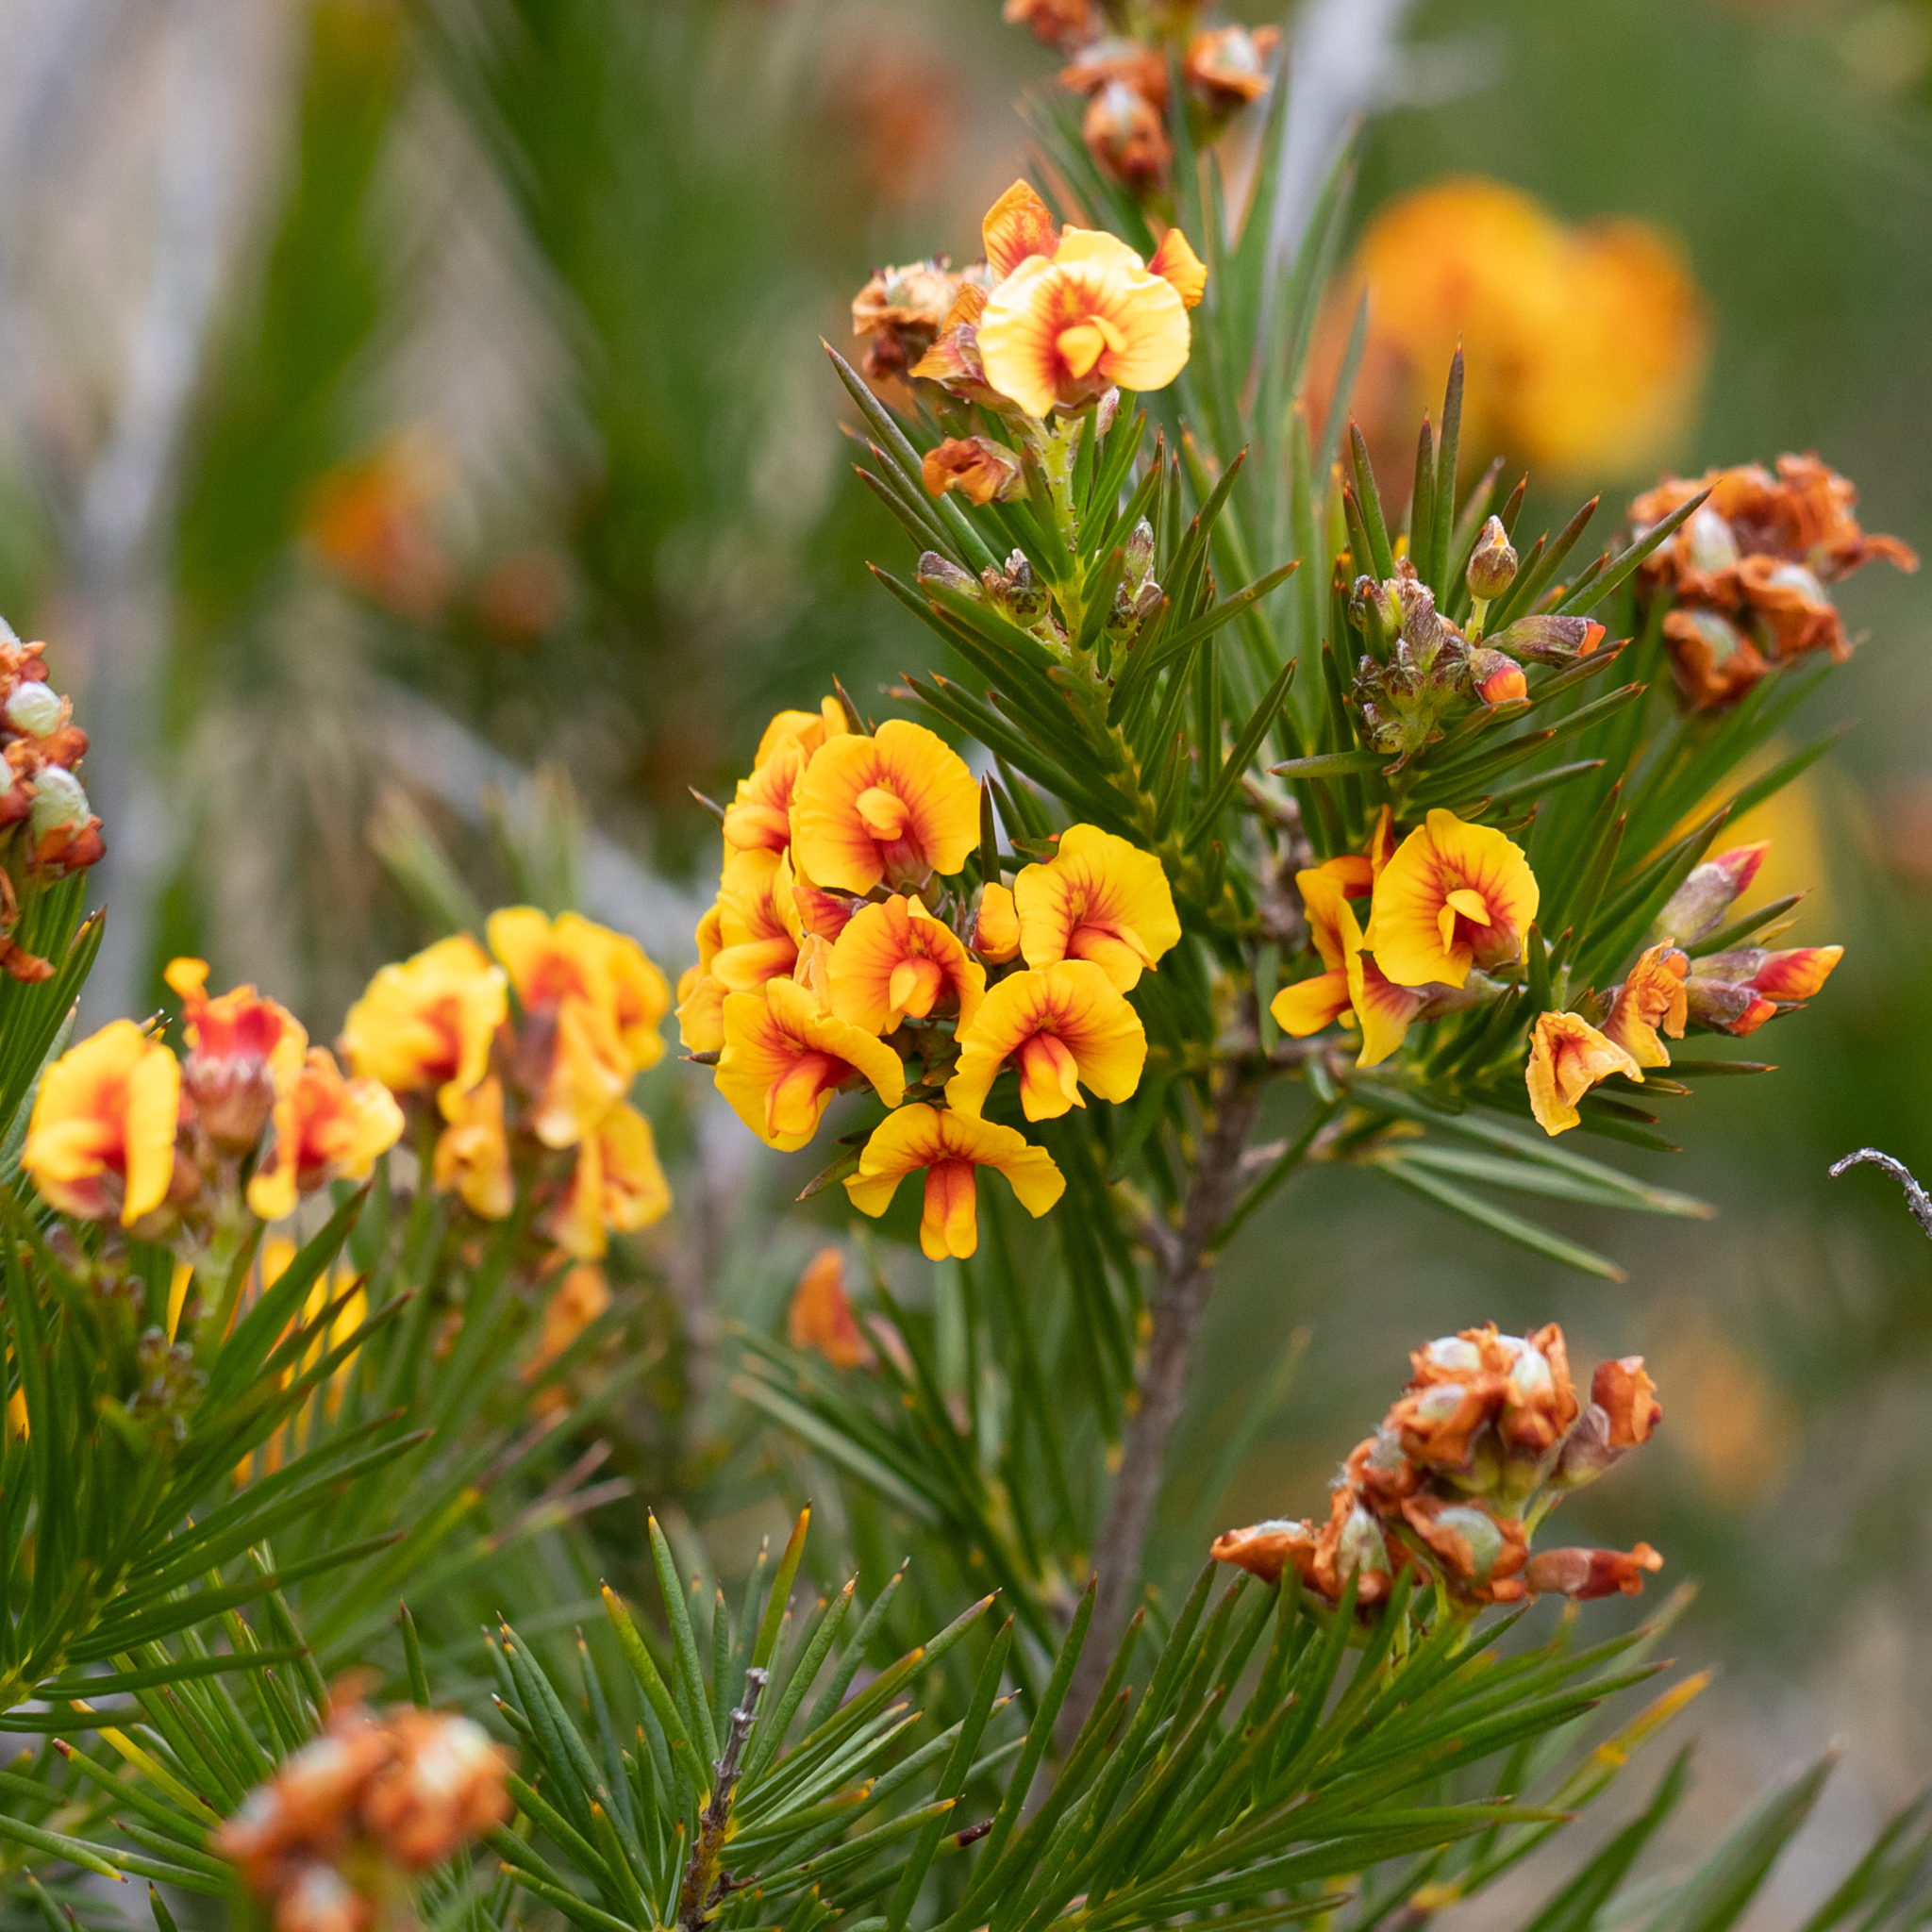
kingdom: Plantae
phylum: Tracheophyta
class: Magnoliopsida
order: Fabales
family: Fabaceae
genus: Dillwynia
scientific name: Dillwynia pungens
